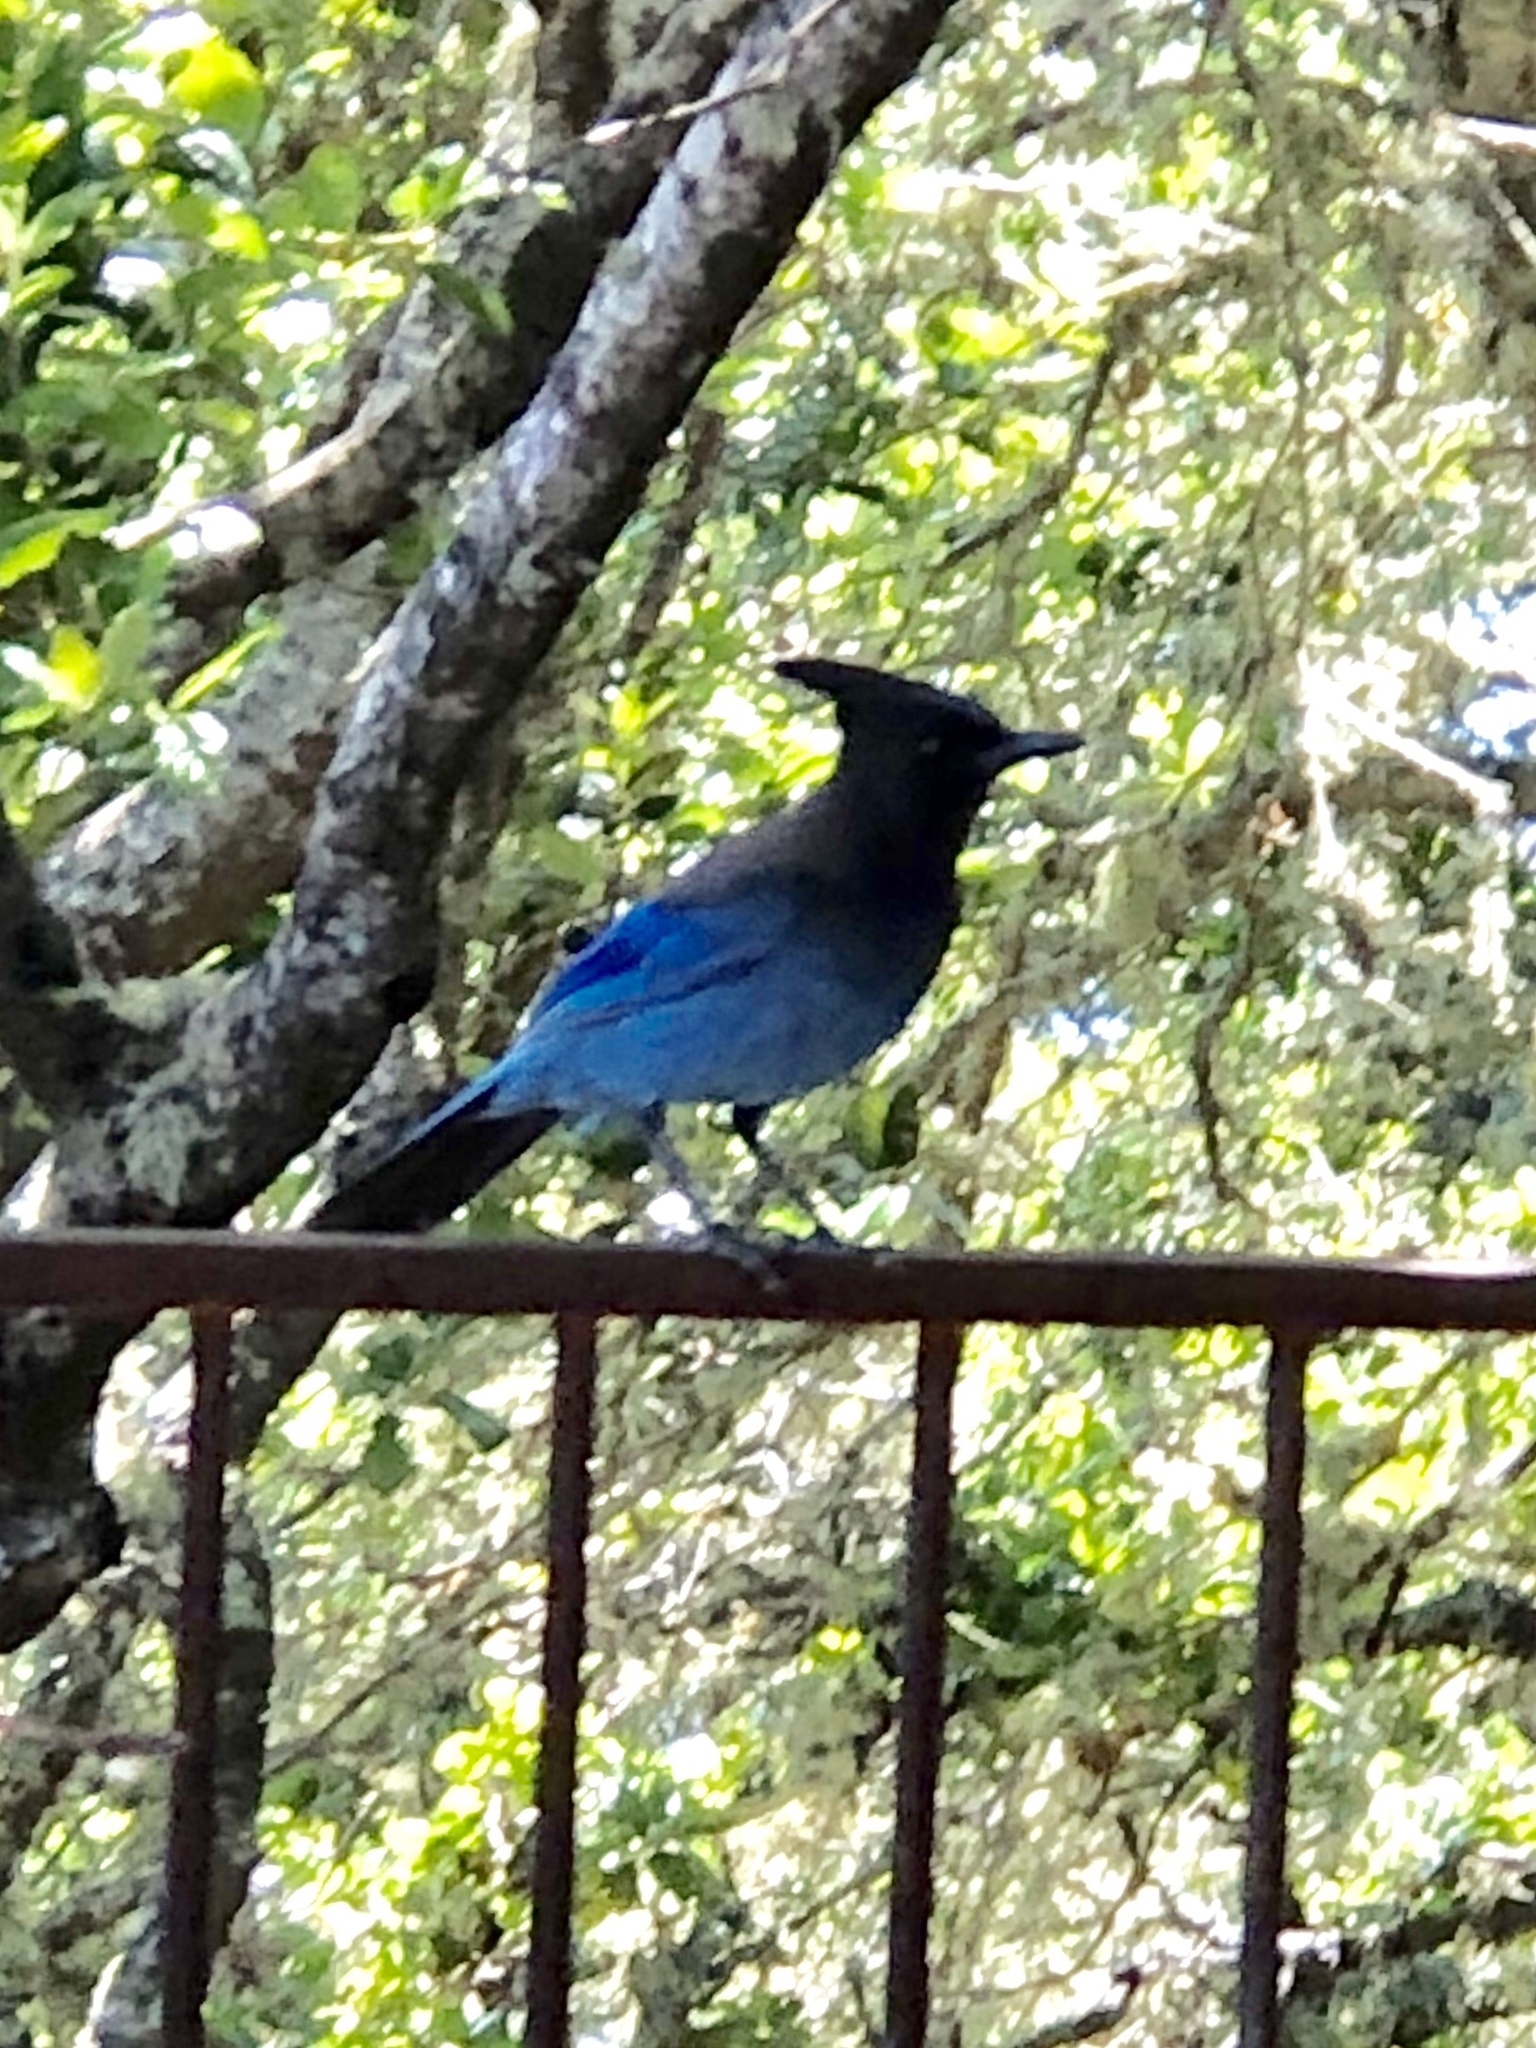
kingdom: Animalia
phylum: Chordata
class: Aves
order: Passeriformes
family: Corvidae
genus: Cyanocitta
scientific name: Cyanocitta stelleri
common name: Steller's jay
